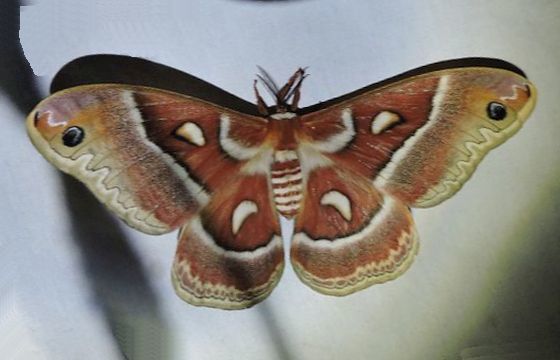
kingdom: Animalia
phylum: Arthropoda
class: Insecta
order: Lepidoptera
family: Saturniidae
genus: Hyalophora
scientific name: Hyalophora gloveri
